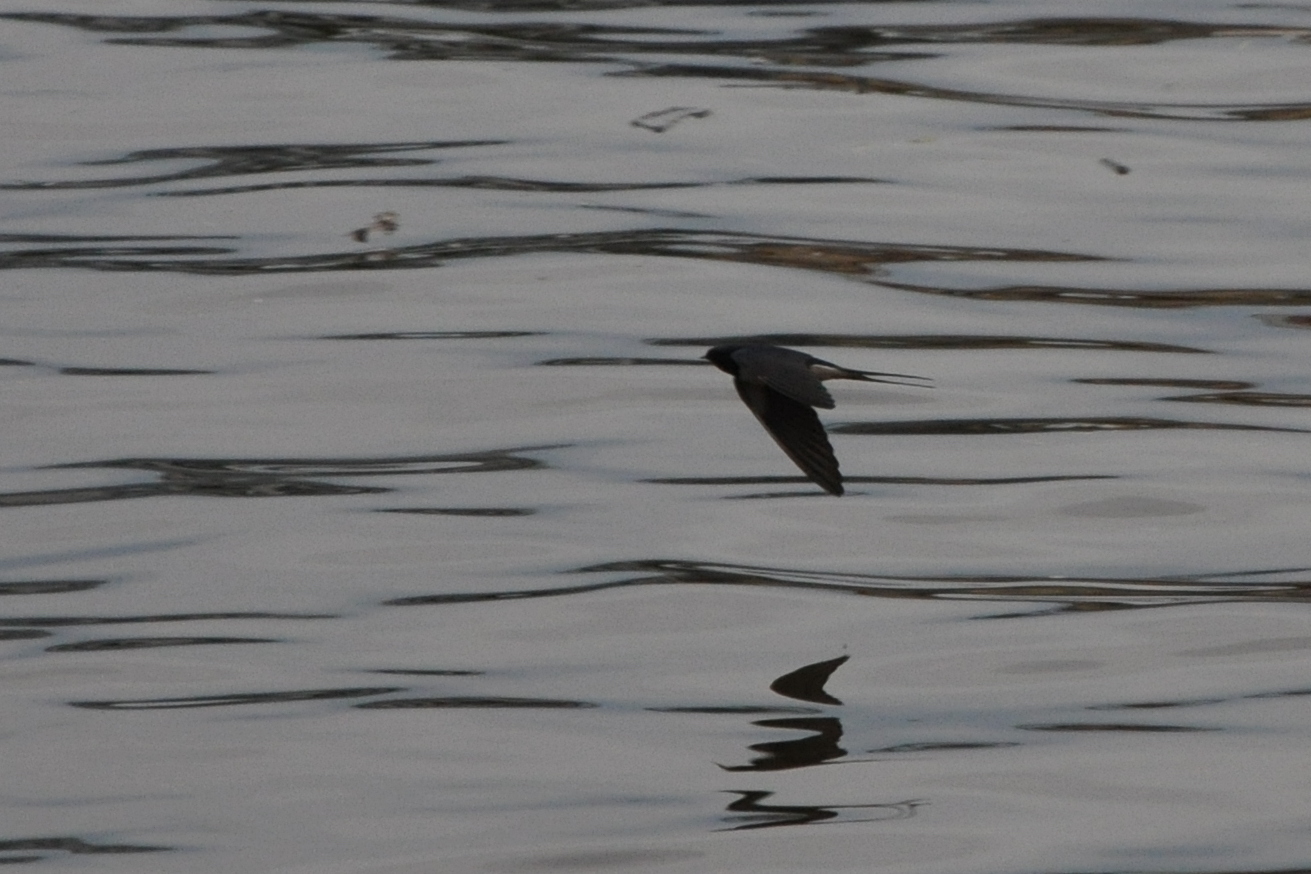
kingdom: Animalia
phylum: Chordata
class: Aves
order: Passeriformes
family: Hirundinidae
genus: Hirundo
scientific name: Hirundo rustica
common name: Barn swallow
